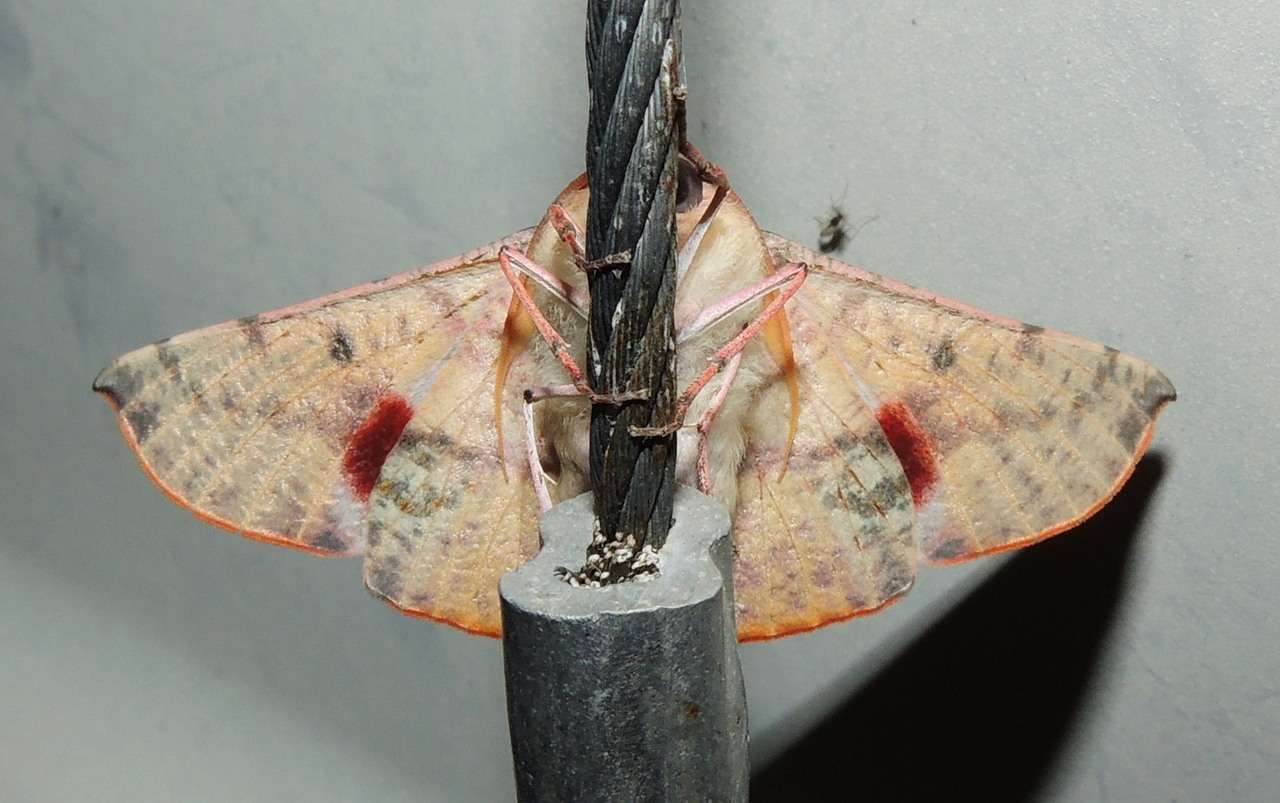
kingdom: Animalia
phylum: Arthropoda
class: Insecta
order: Lepidoptera
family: Geometridae
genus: Oenochroma
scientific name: Oenochroma vinaria
